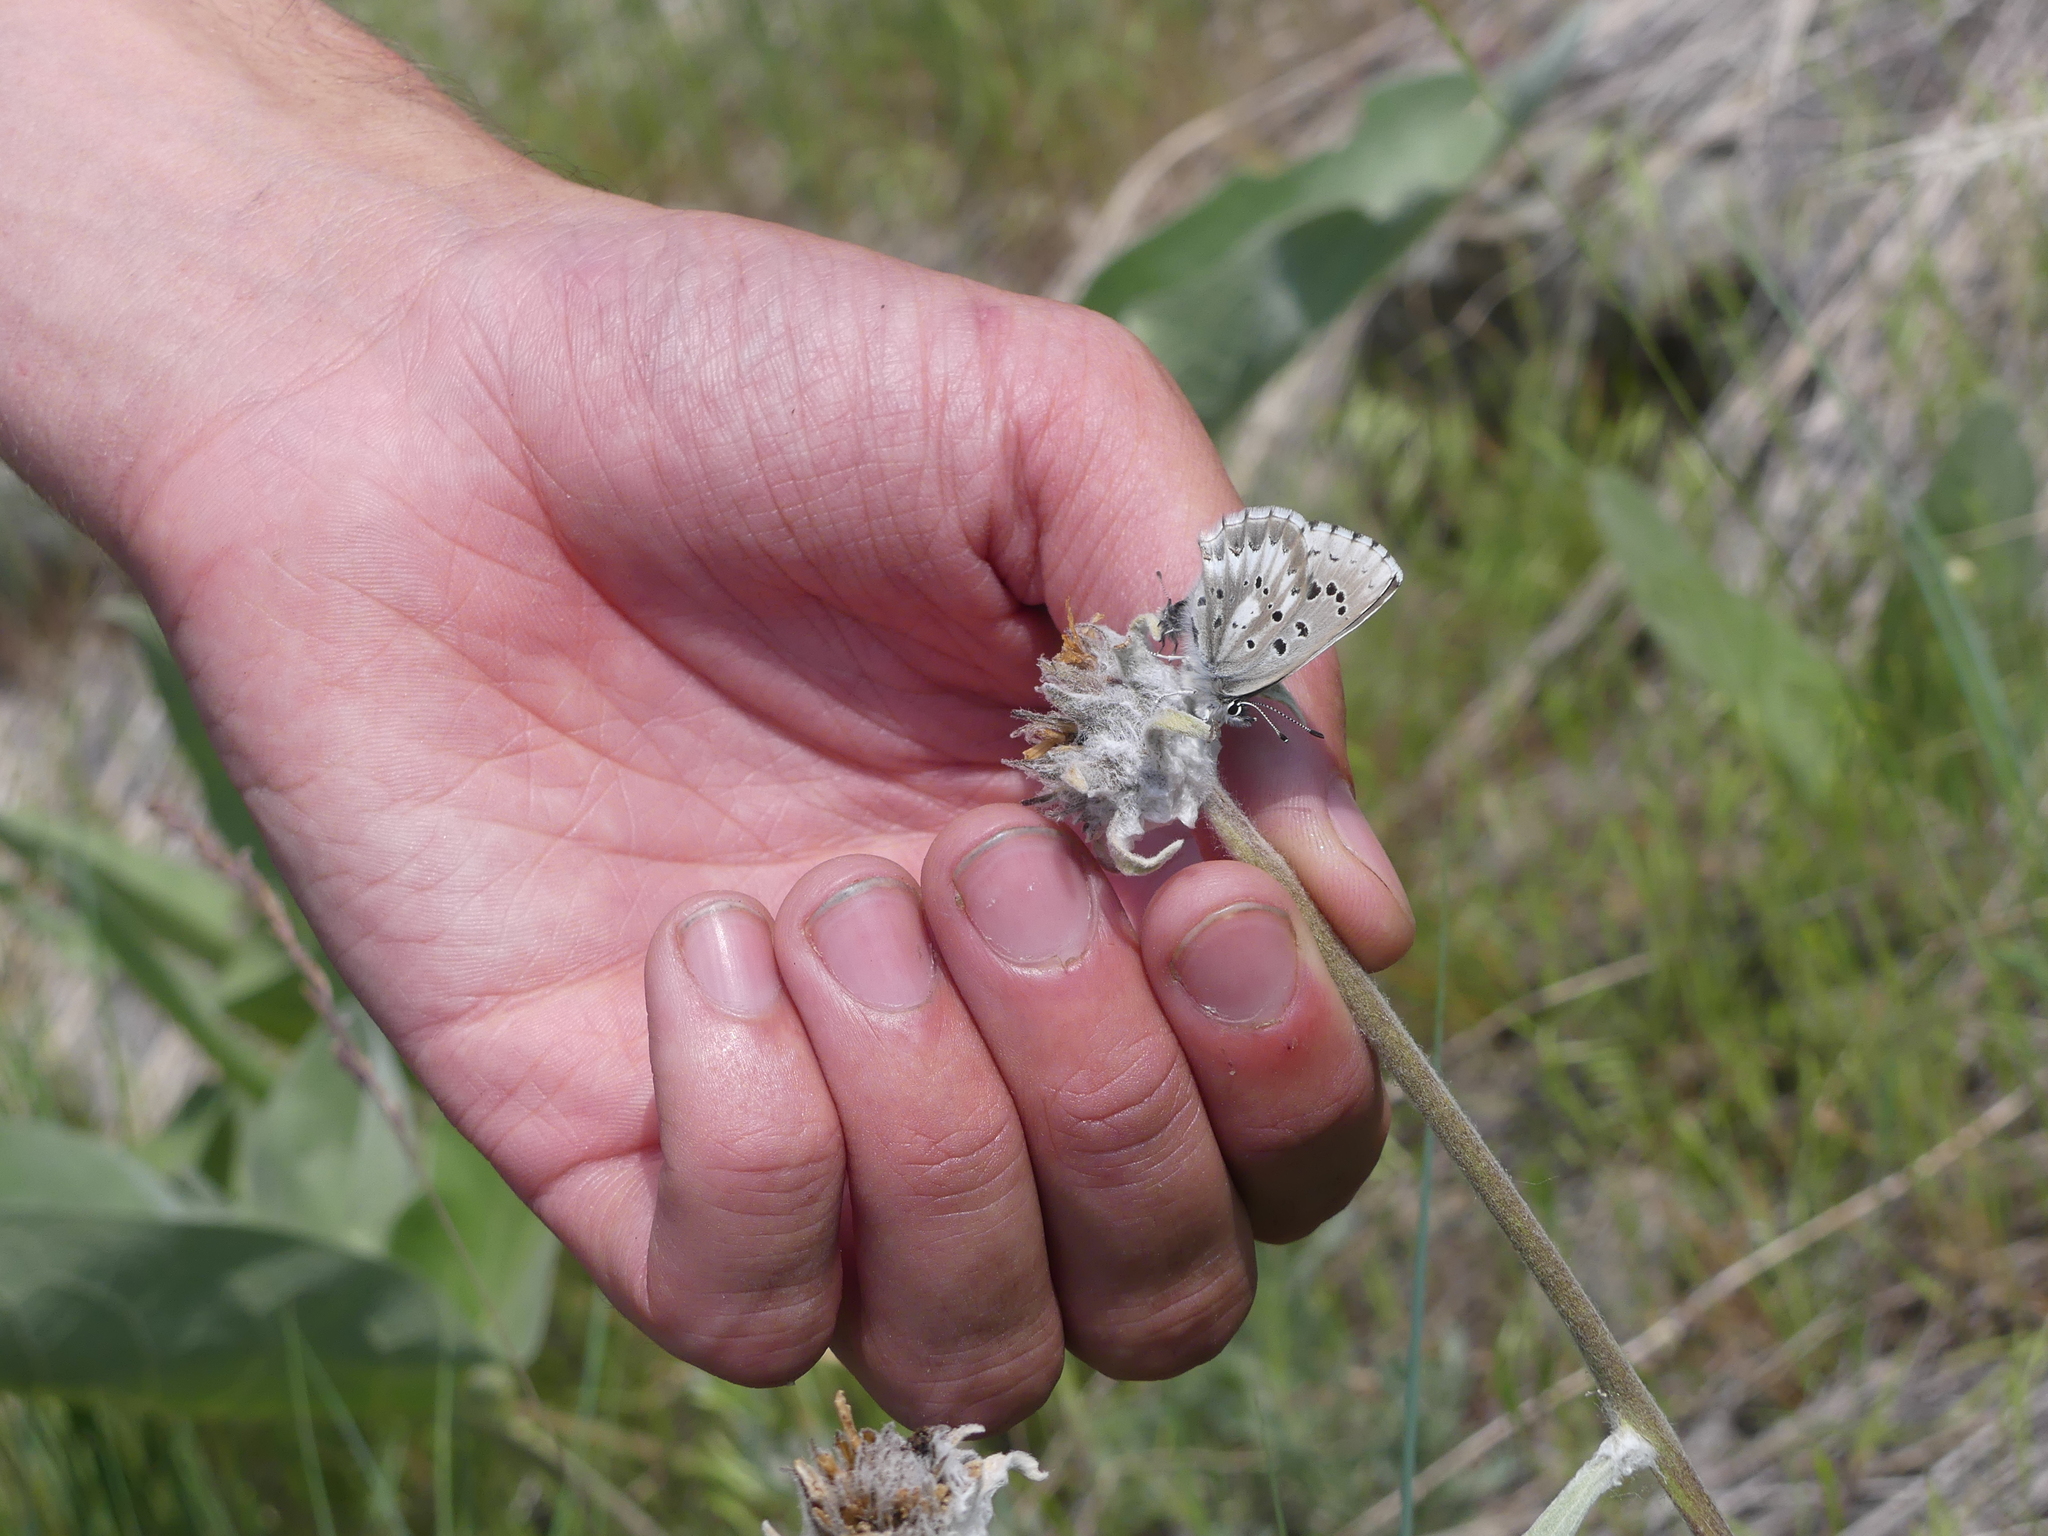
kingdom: Animalia
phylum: Arthropoda
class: Insecta
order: Lepidoptera
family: Lycaenidae
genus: Glaucopsyche
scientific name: Glaucopsyche piasus
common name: Arrowhead blue
